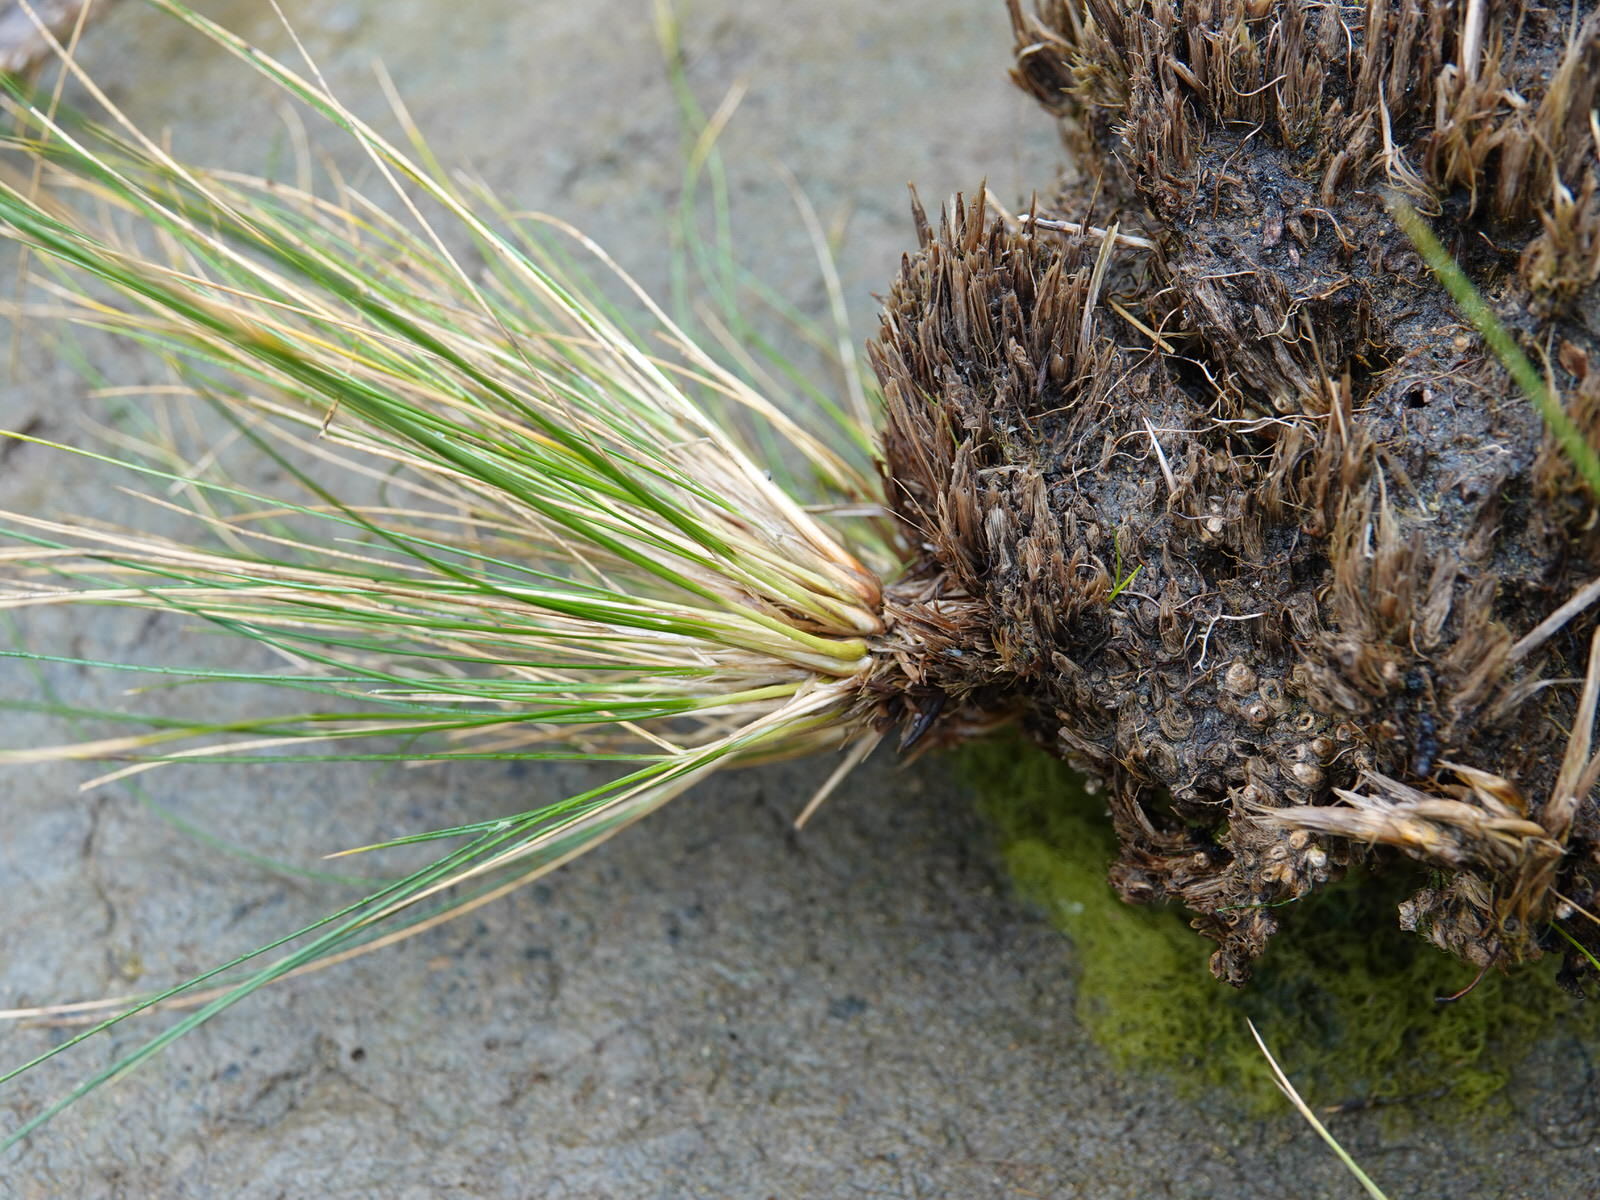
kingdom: Plantae
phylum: Tracheophyta
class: Liliopsida
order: Poales
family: Poaceae
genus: Austrostipa
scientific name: Austrostipa stipoides
